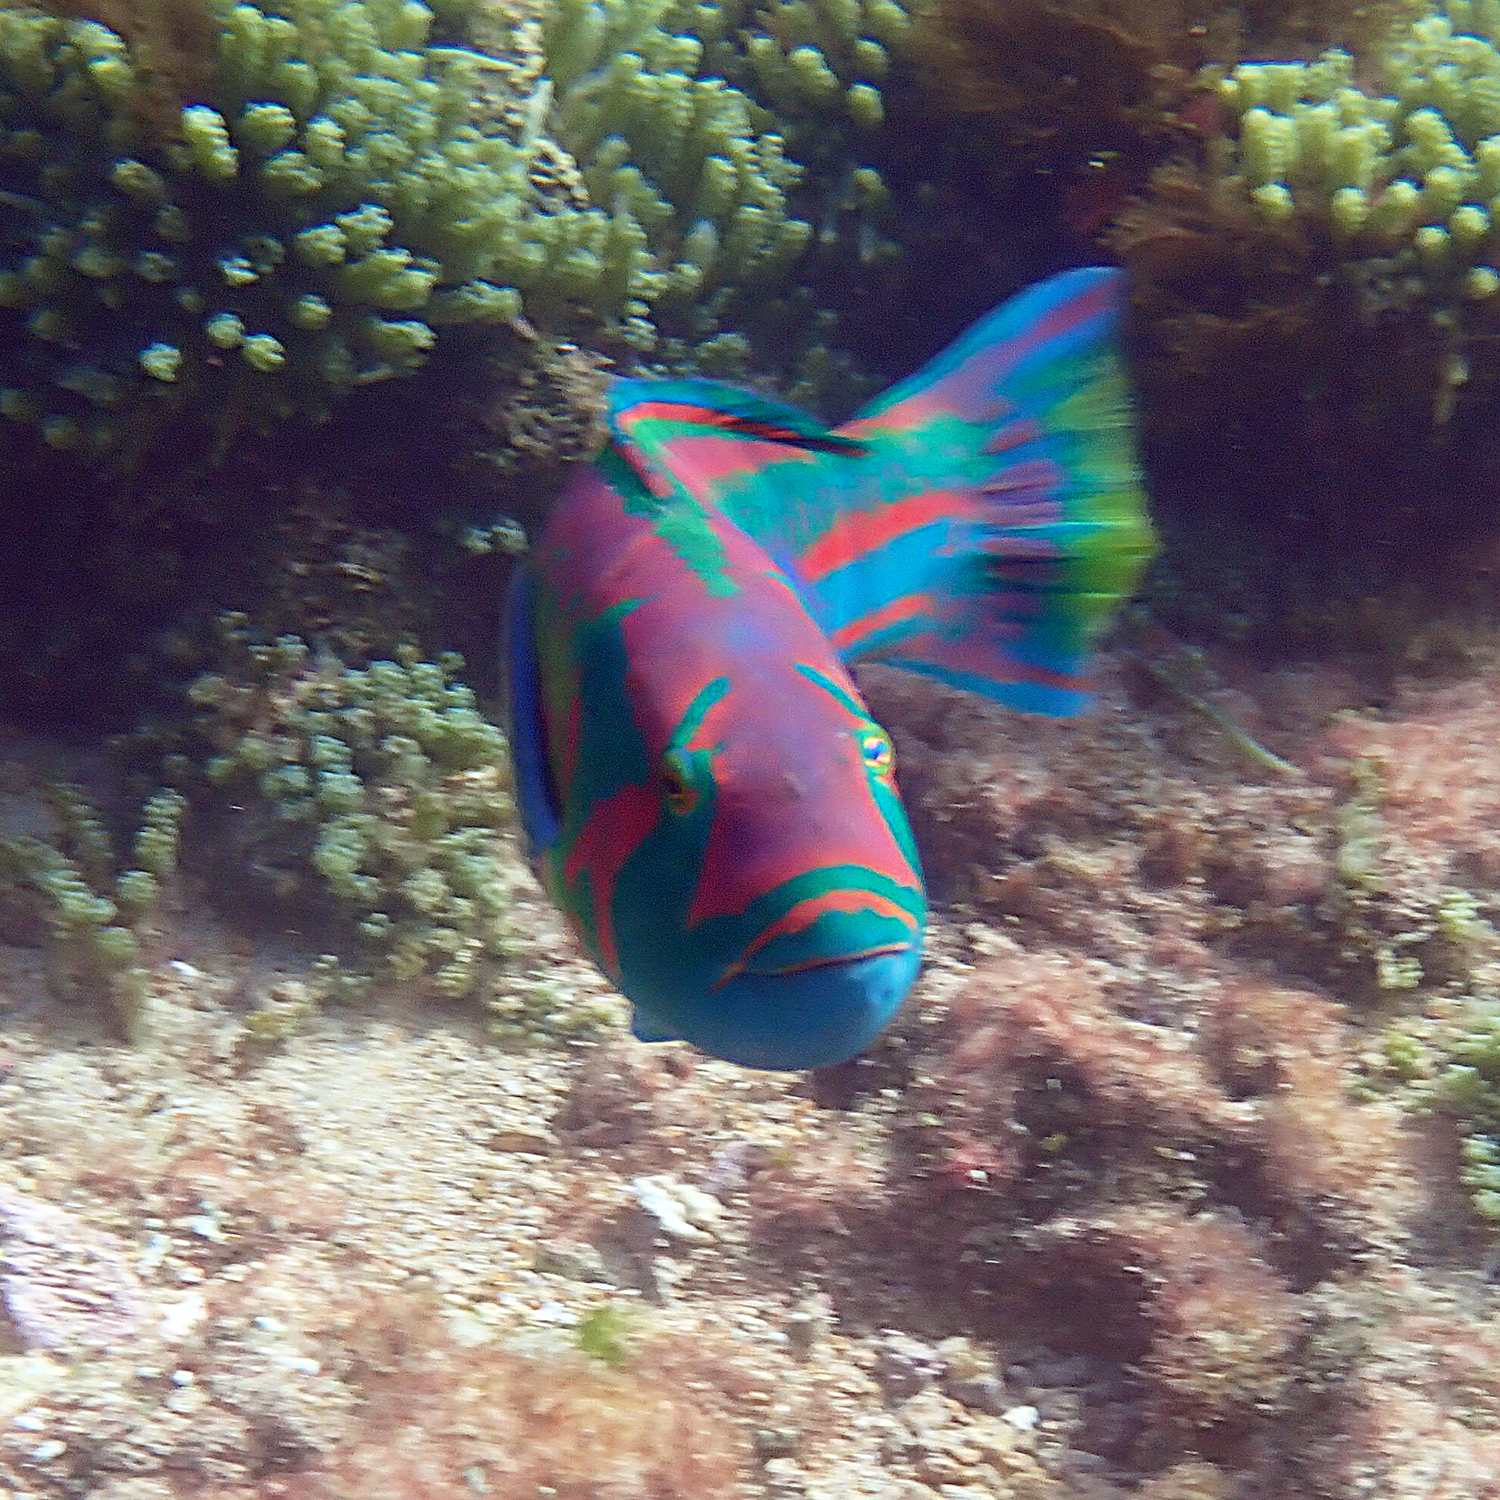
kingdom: Animalia
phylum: Chordata
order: Perciformes
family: Labridae
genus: Thalassoma
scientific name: Thalassoma purpureum
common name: Parrotfish
